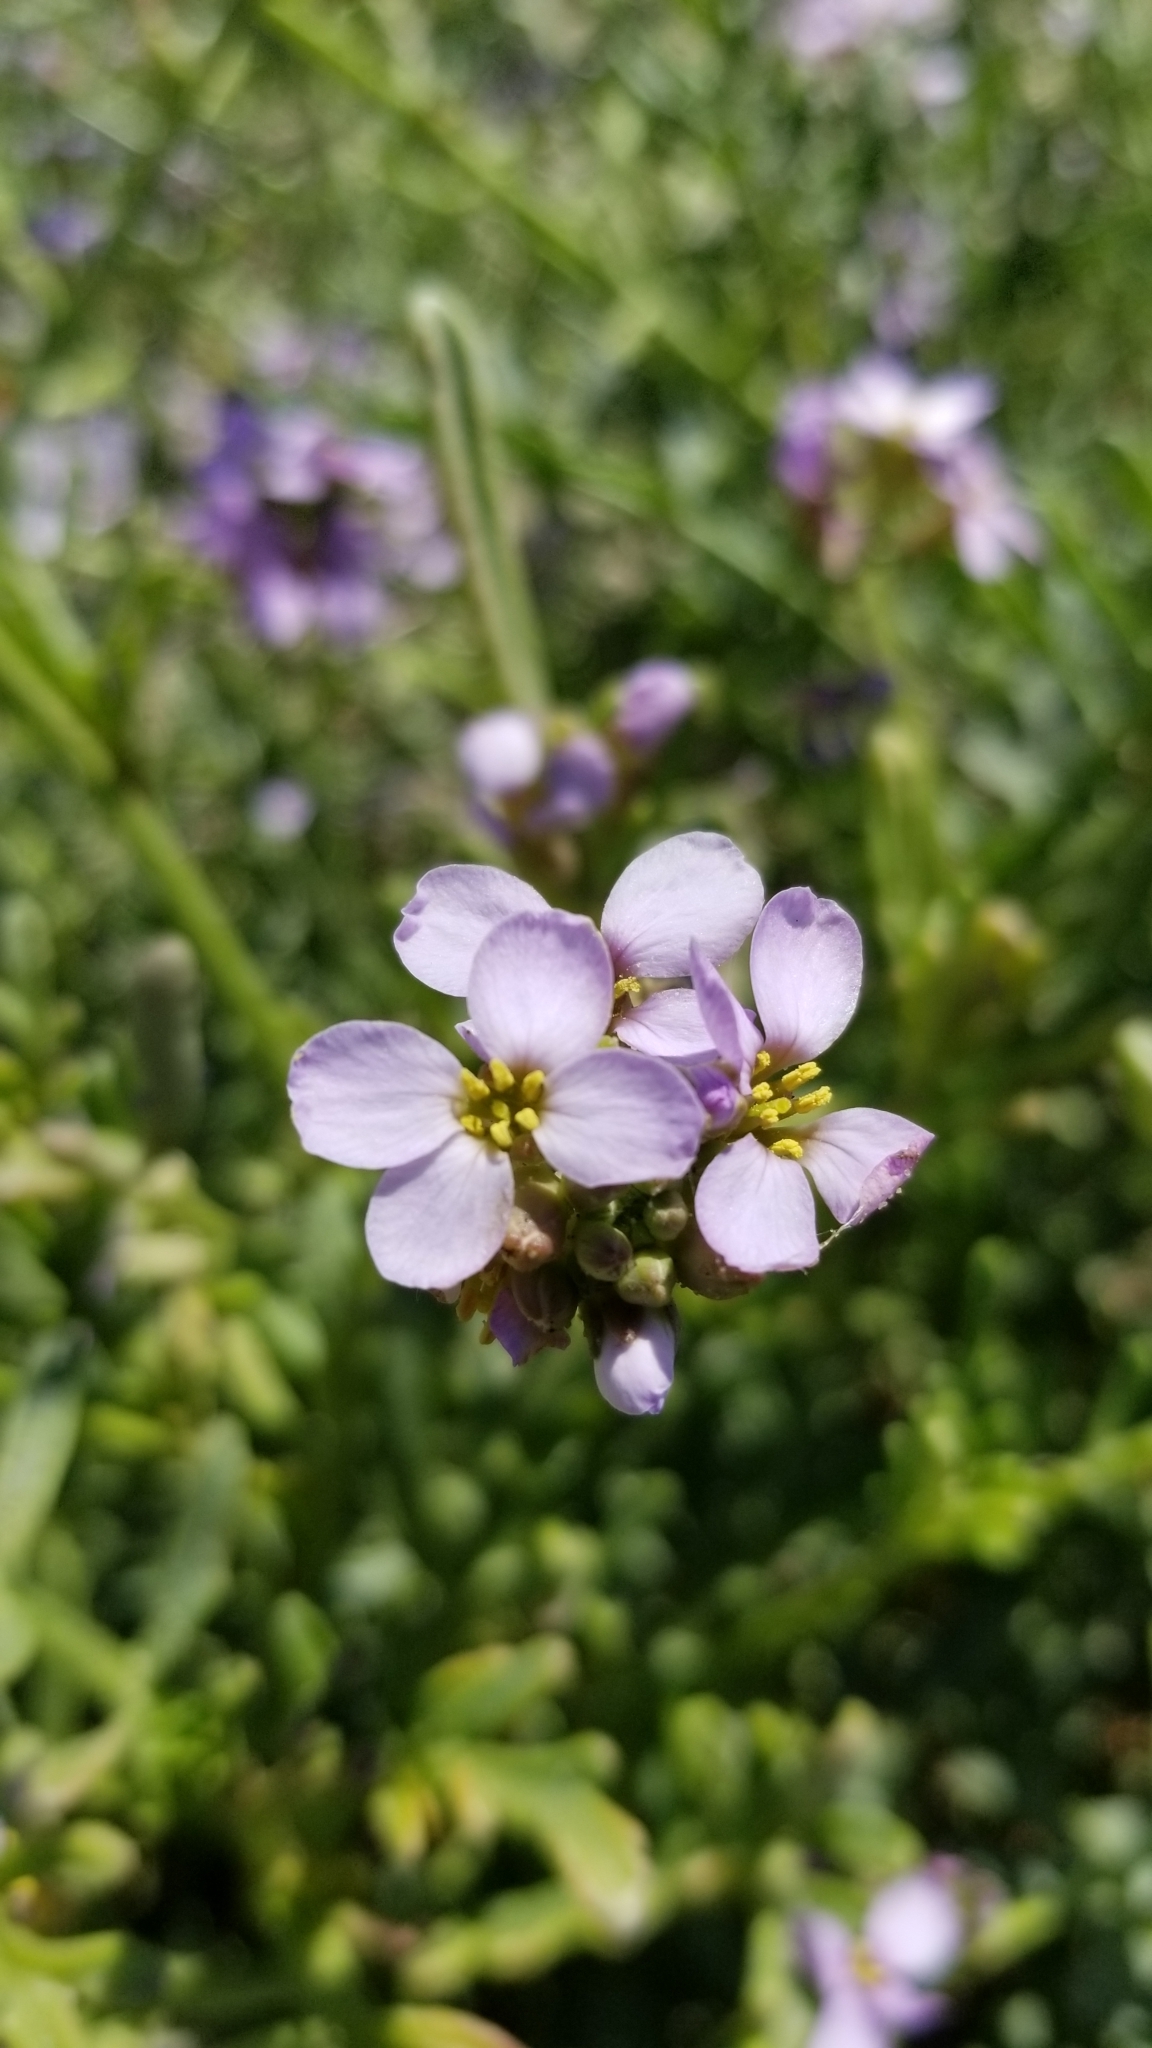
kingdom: Plantae
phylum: Tracheophyta
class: Magnoliopsida
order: Brassicales
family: Brassicaceae
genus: Cakile
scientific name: Cakile maritima
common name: Sea rocket
